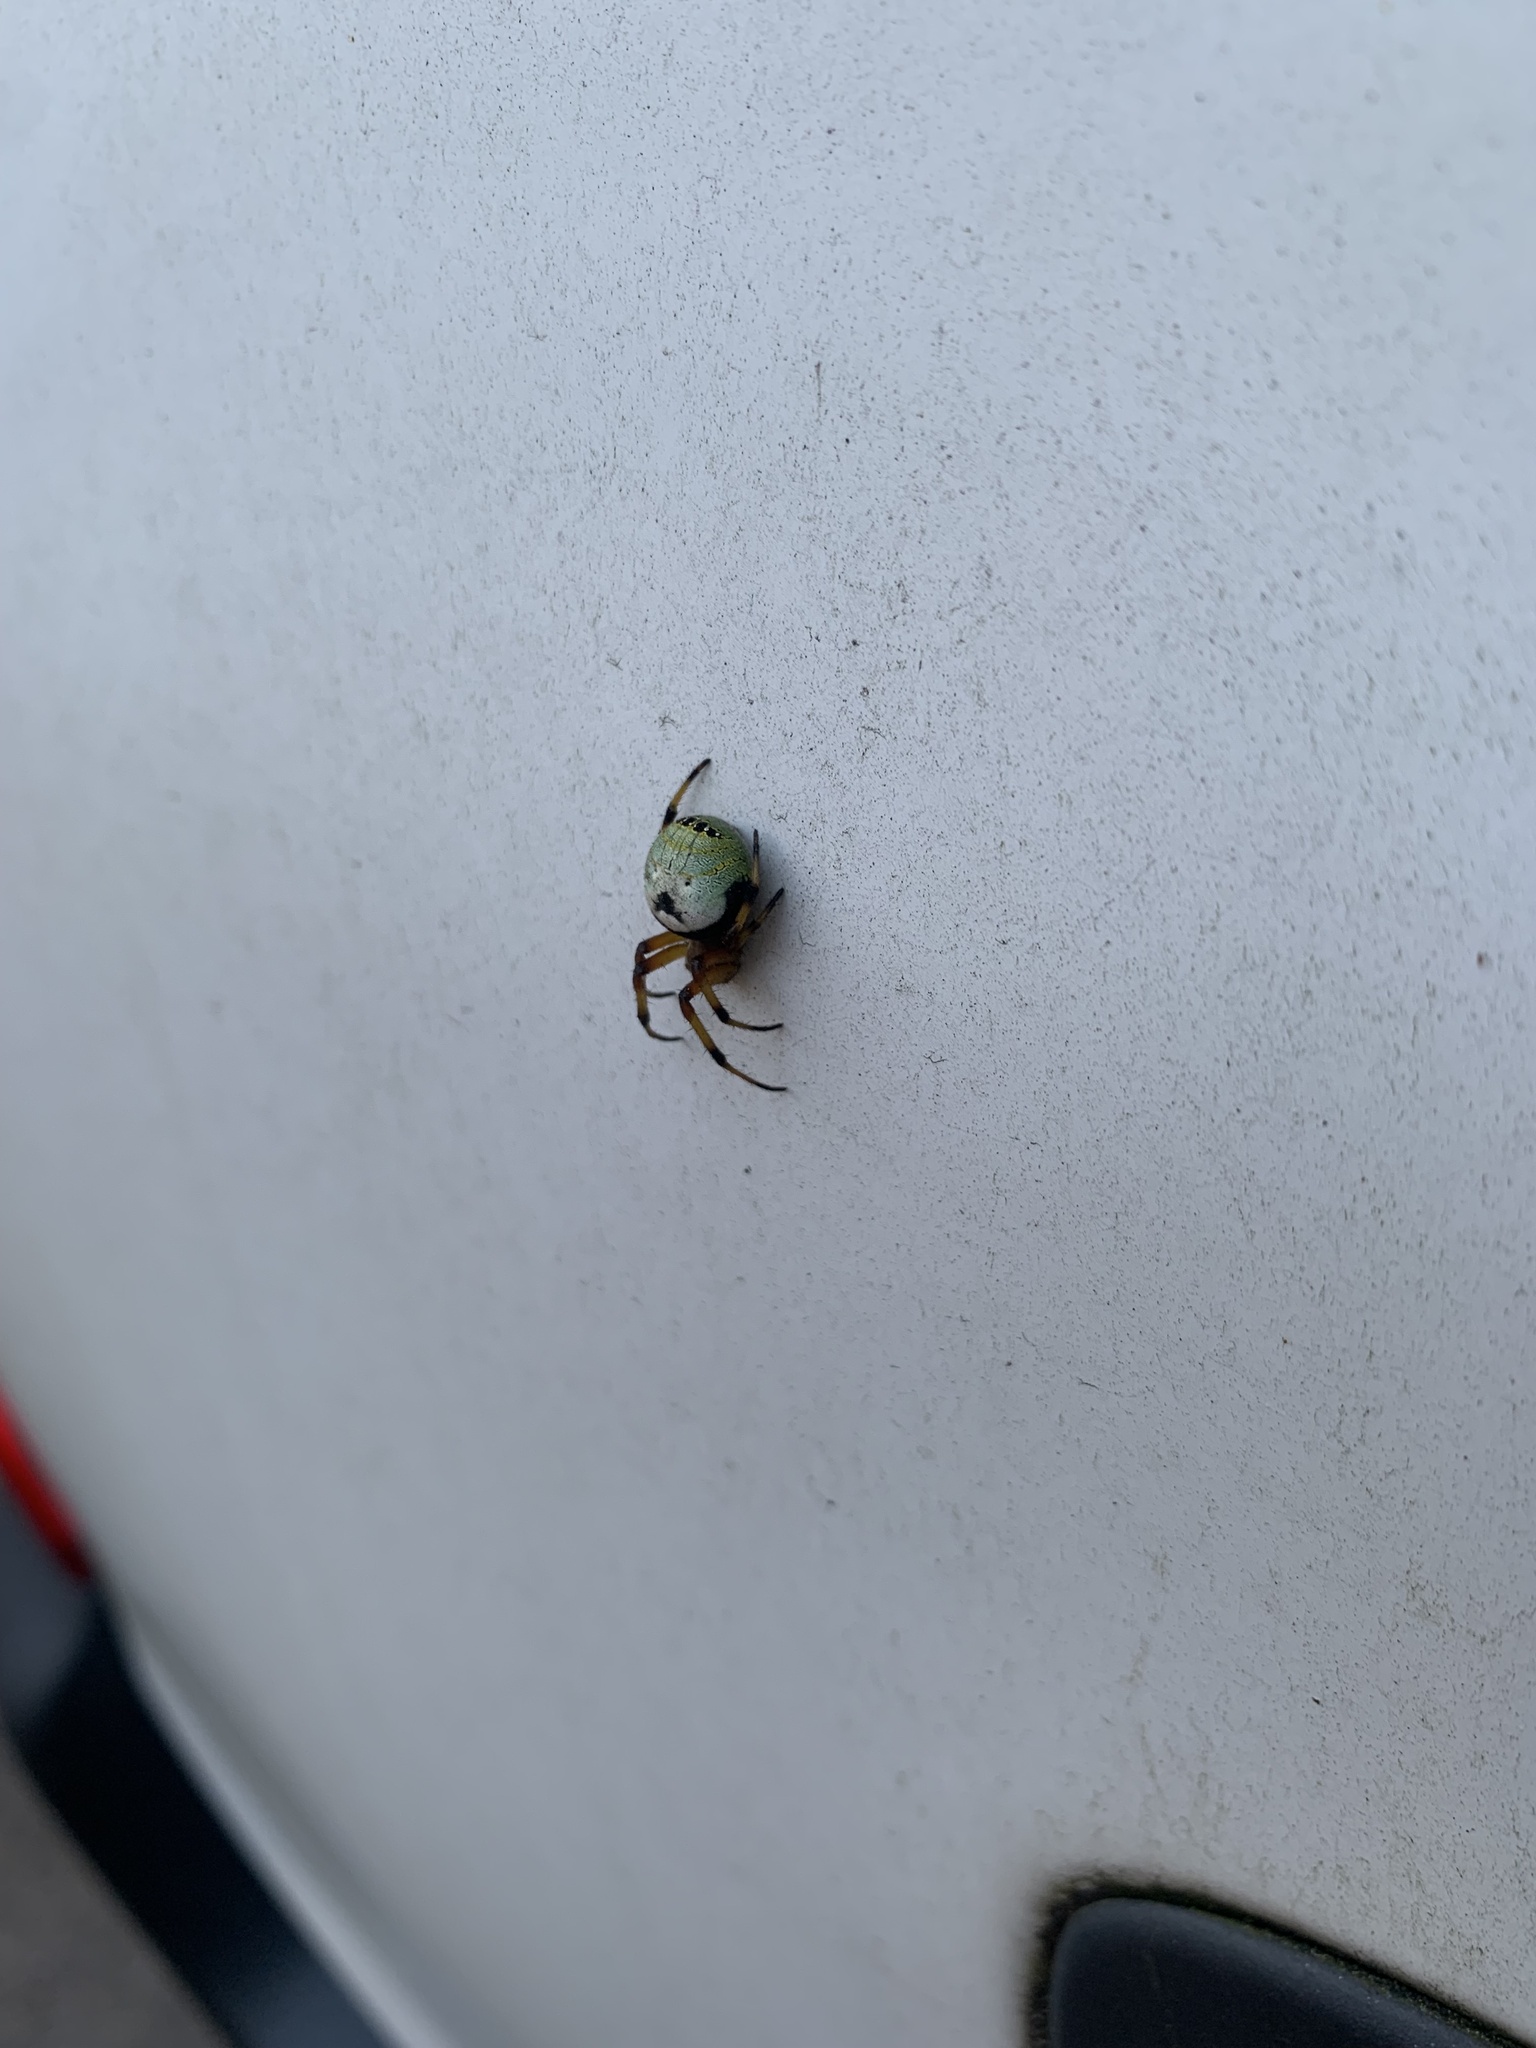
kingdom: Animalia
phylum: Arthropoda
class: Arachnida
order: Araneae
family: Araneidae
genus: Bijoaraneus
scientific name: Bijoaraneus komachi
